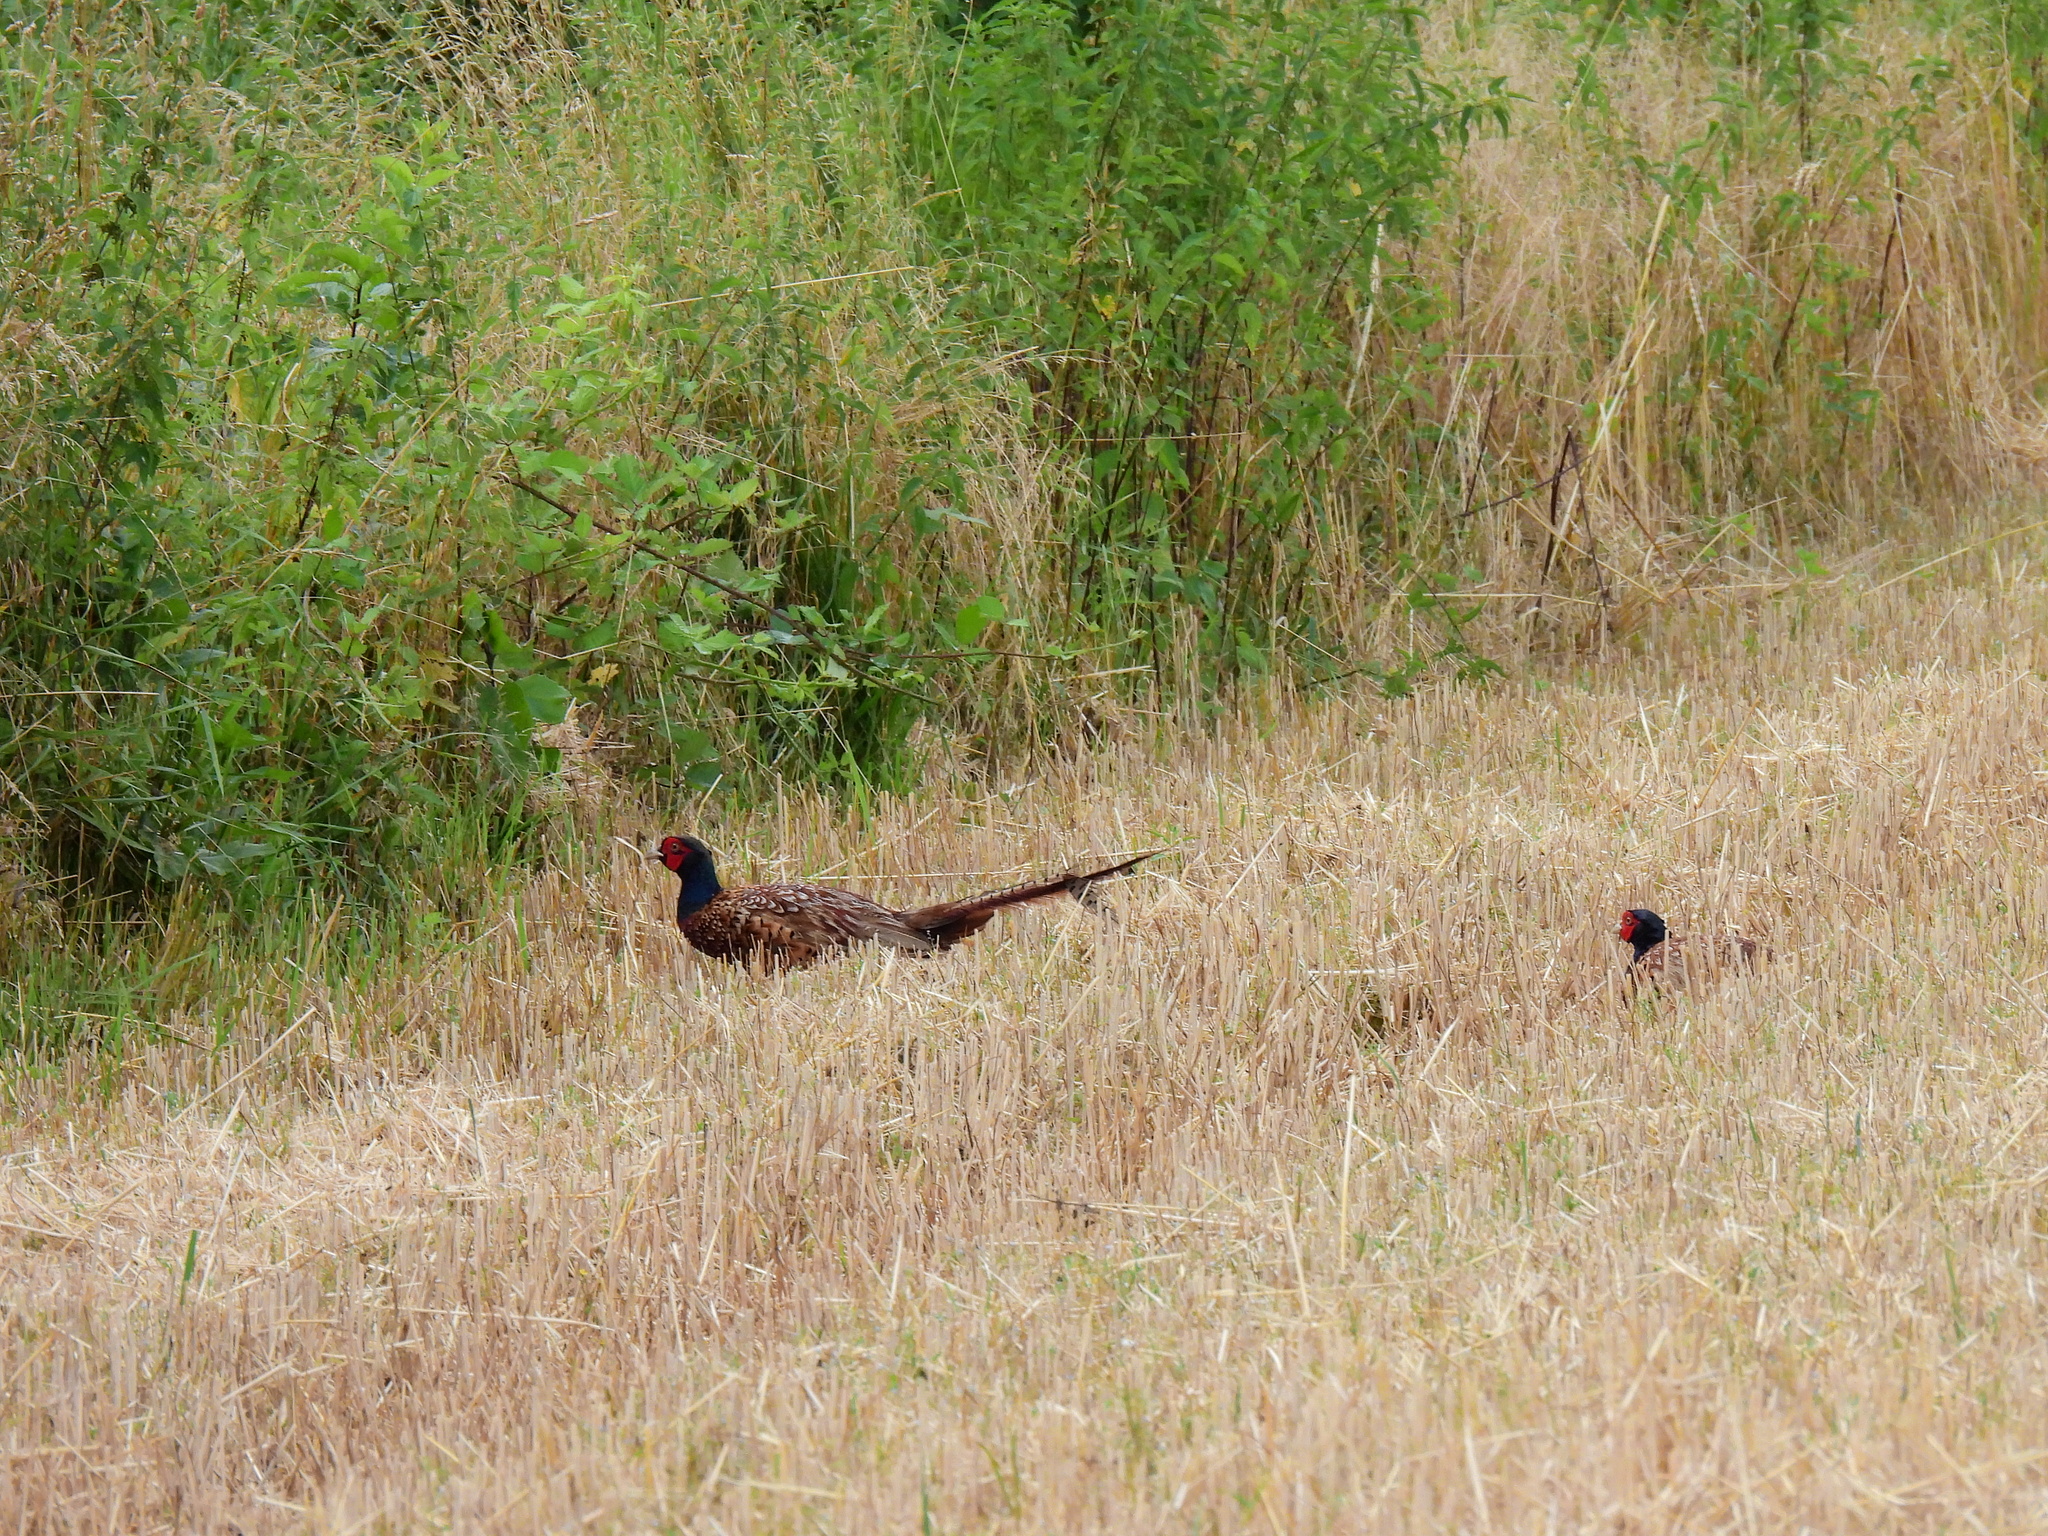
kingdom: Animalia
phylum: Chordata
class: Aves
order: Galliformes
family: Phasianidae
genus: Phasianus
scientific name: Phasianus colchicus
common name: Common pheasant
